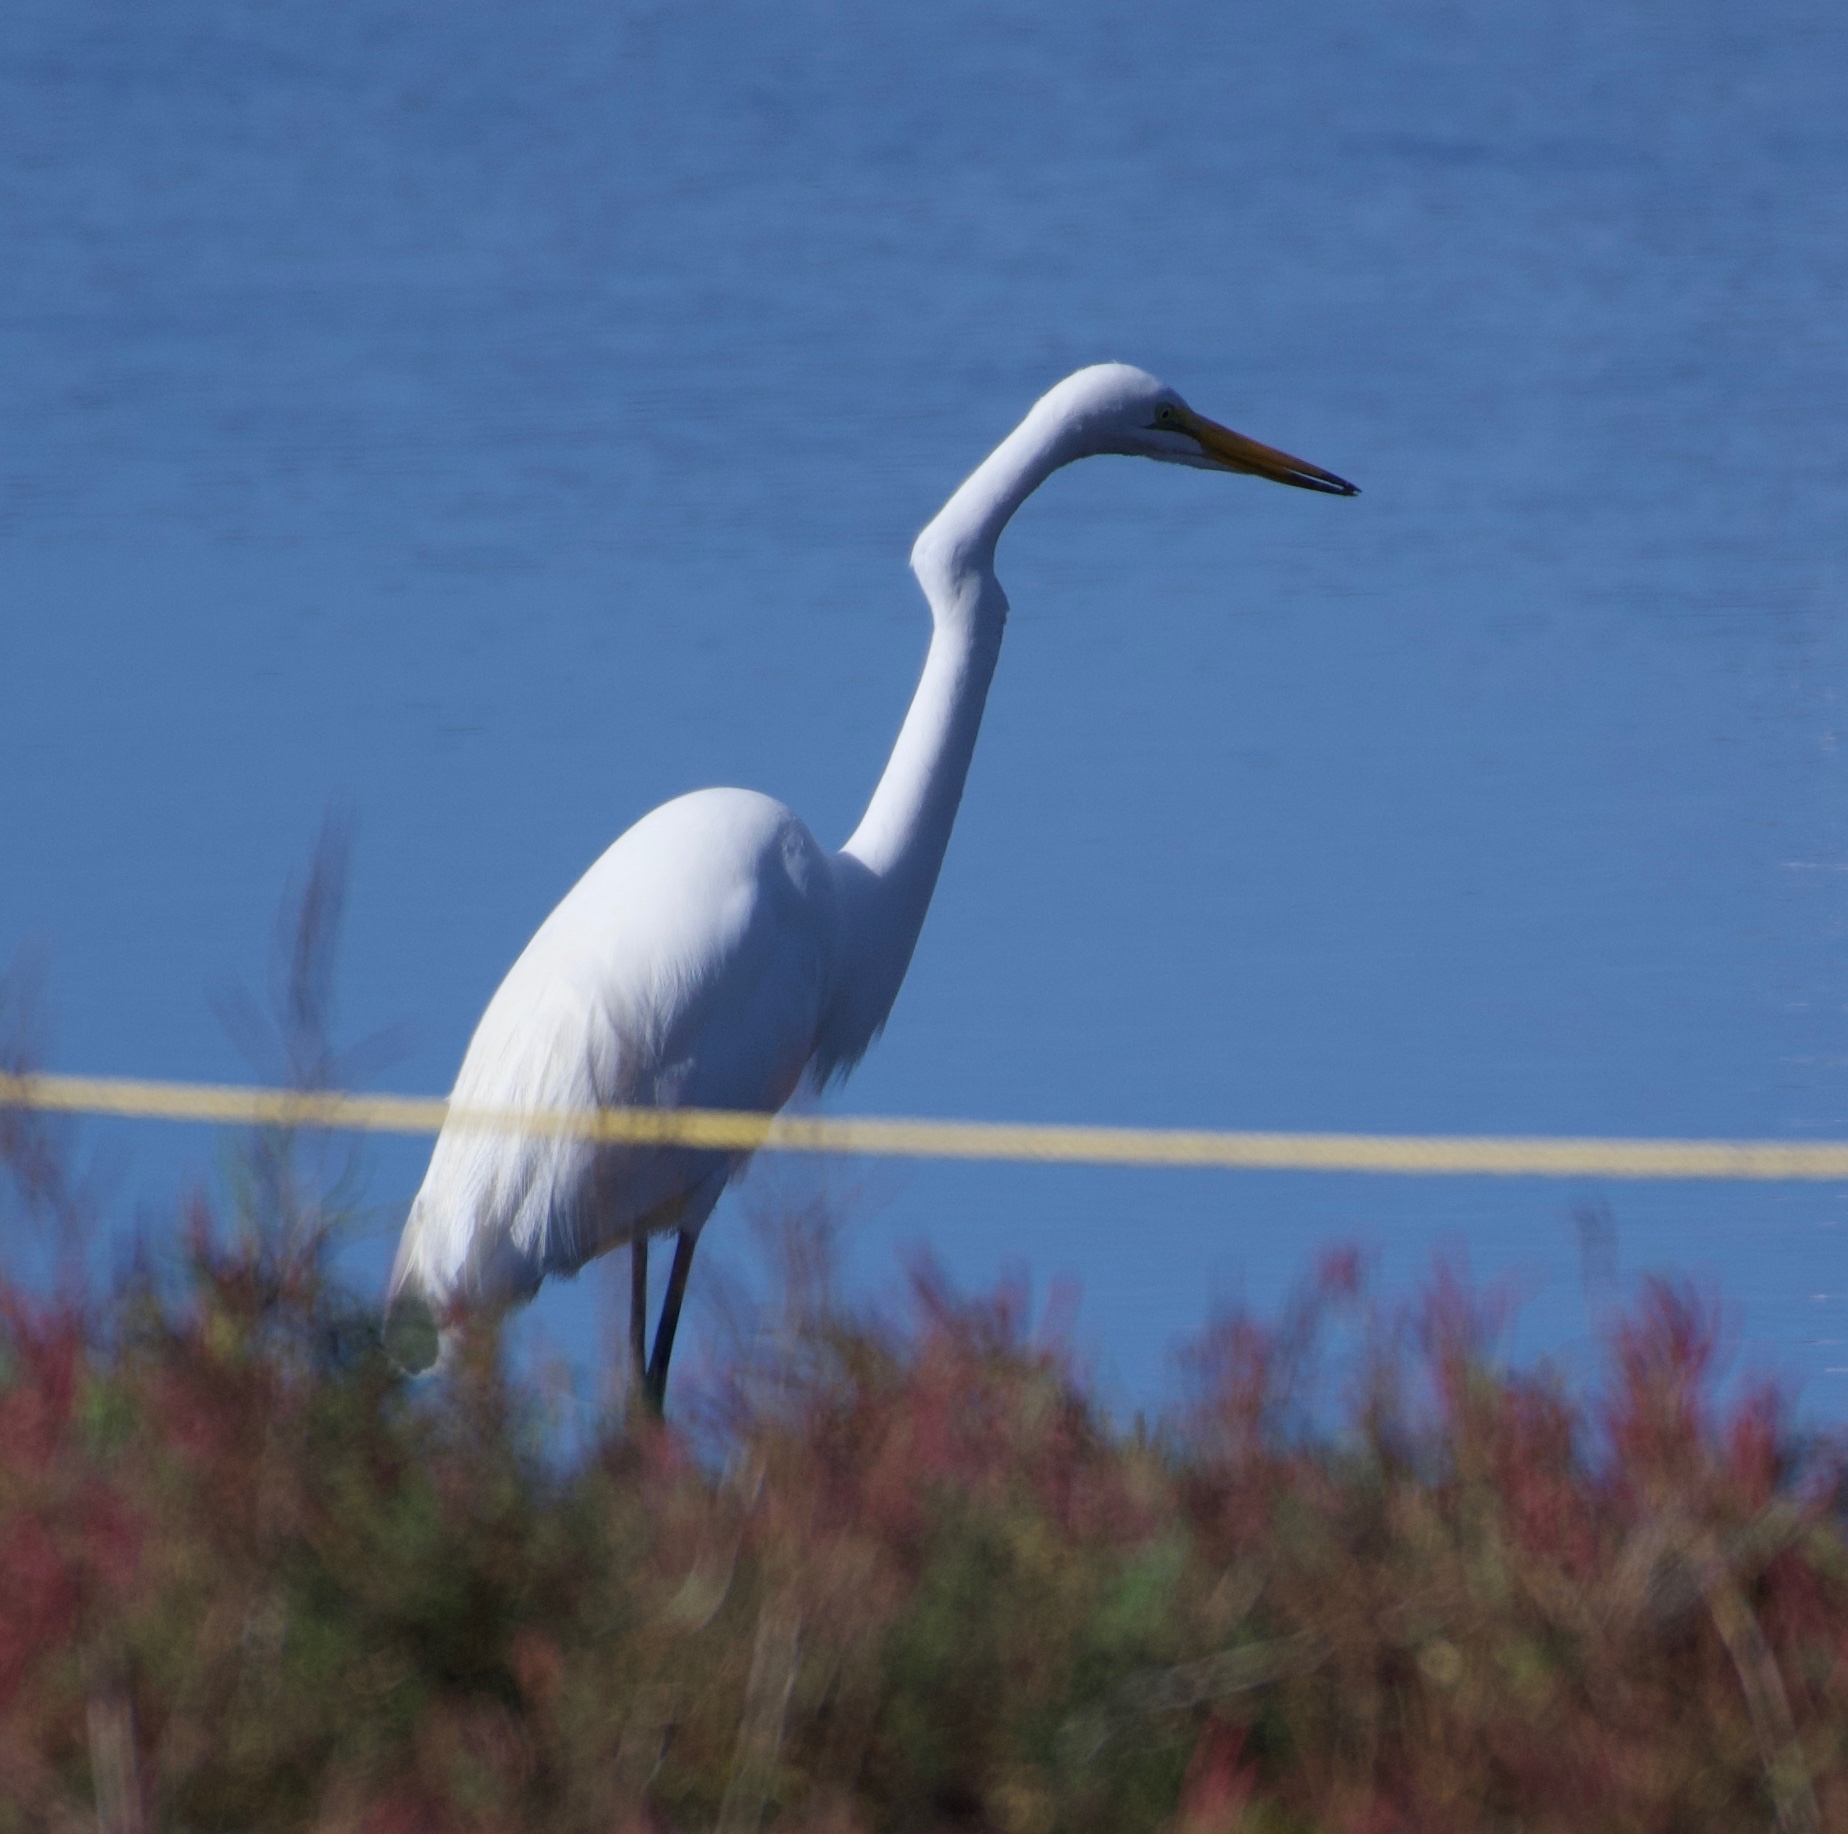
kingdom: Animalia
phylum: Chordata
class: Aves
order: Pelecaniformes
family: Ardeidae
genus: Ardea
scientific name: Ardea alba
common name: Great egret
